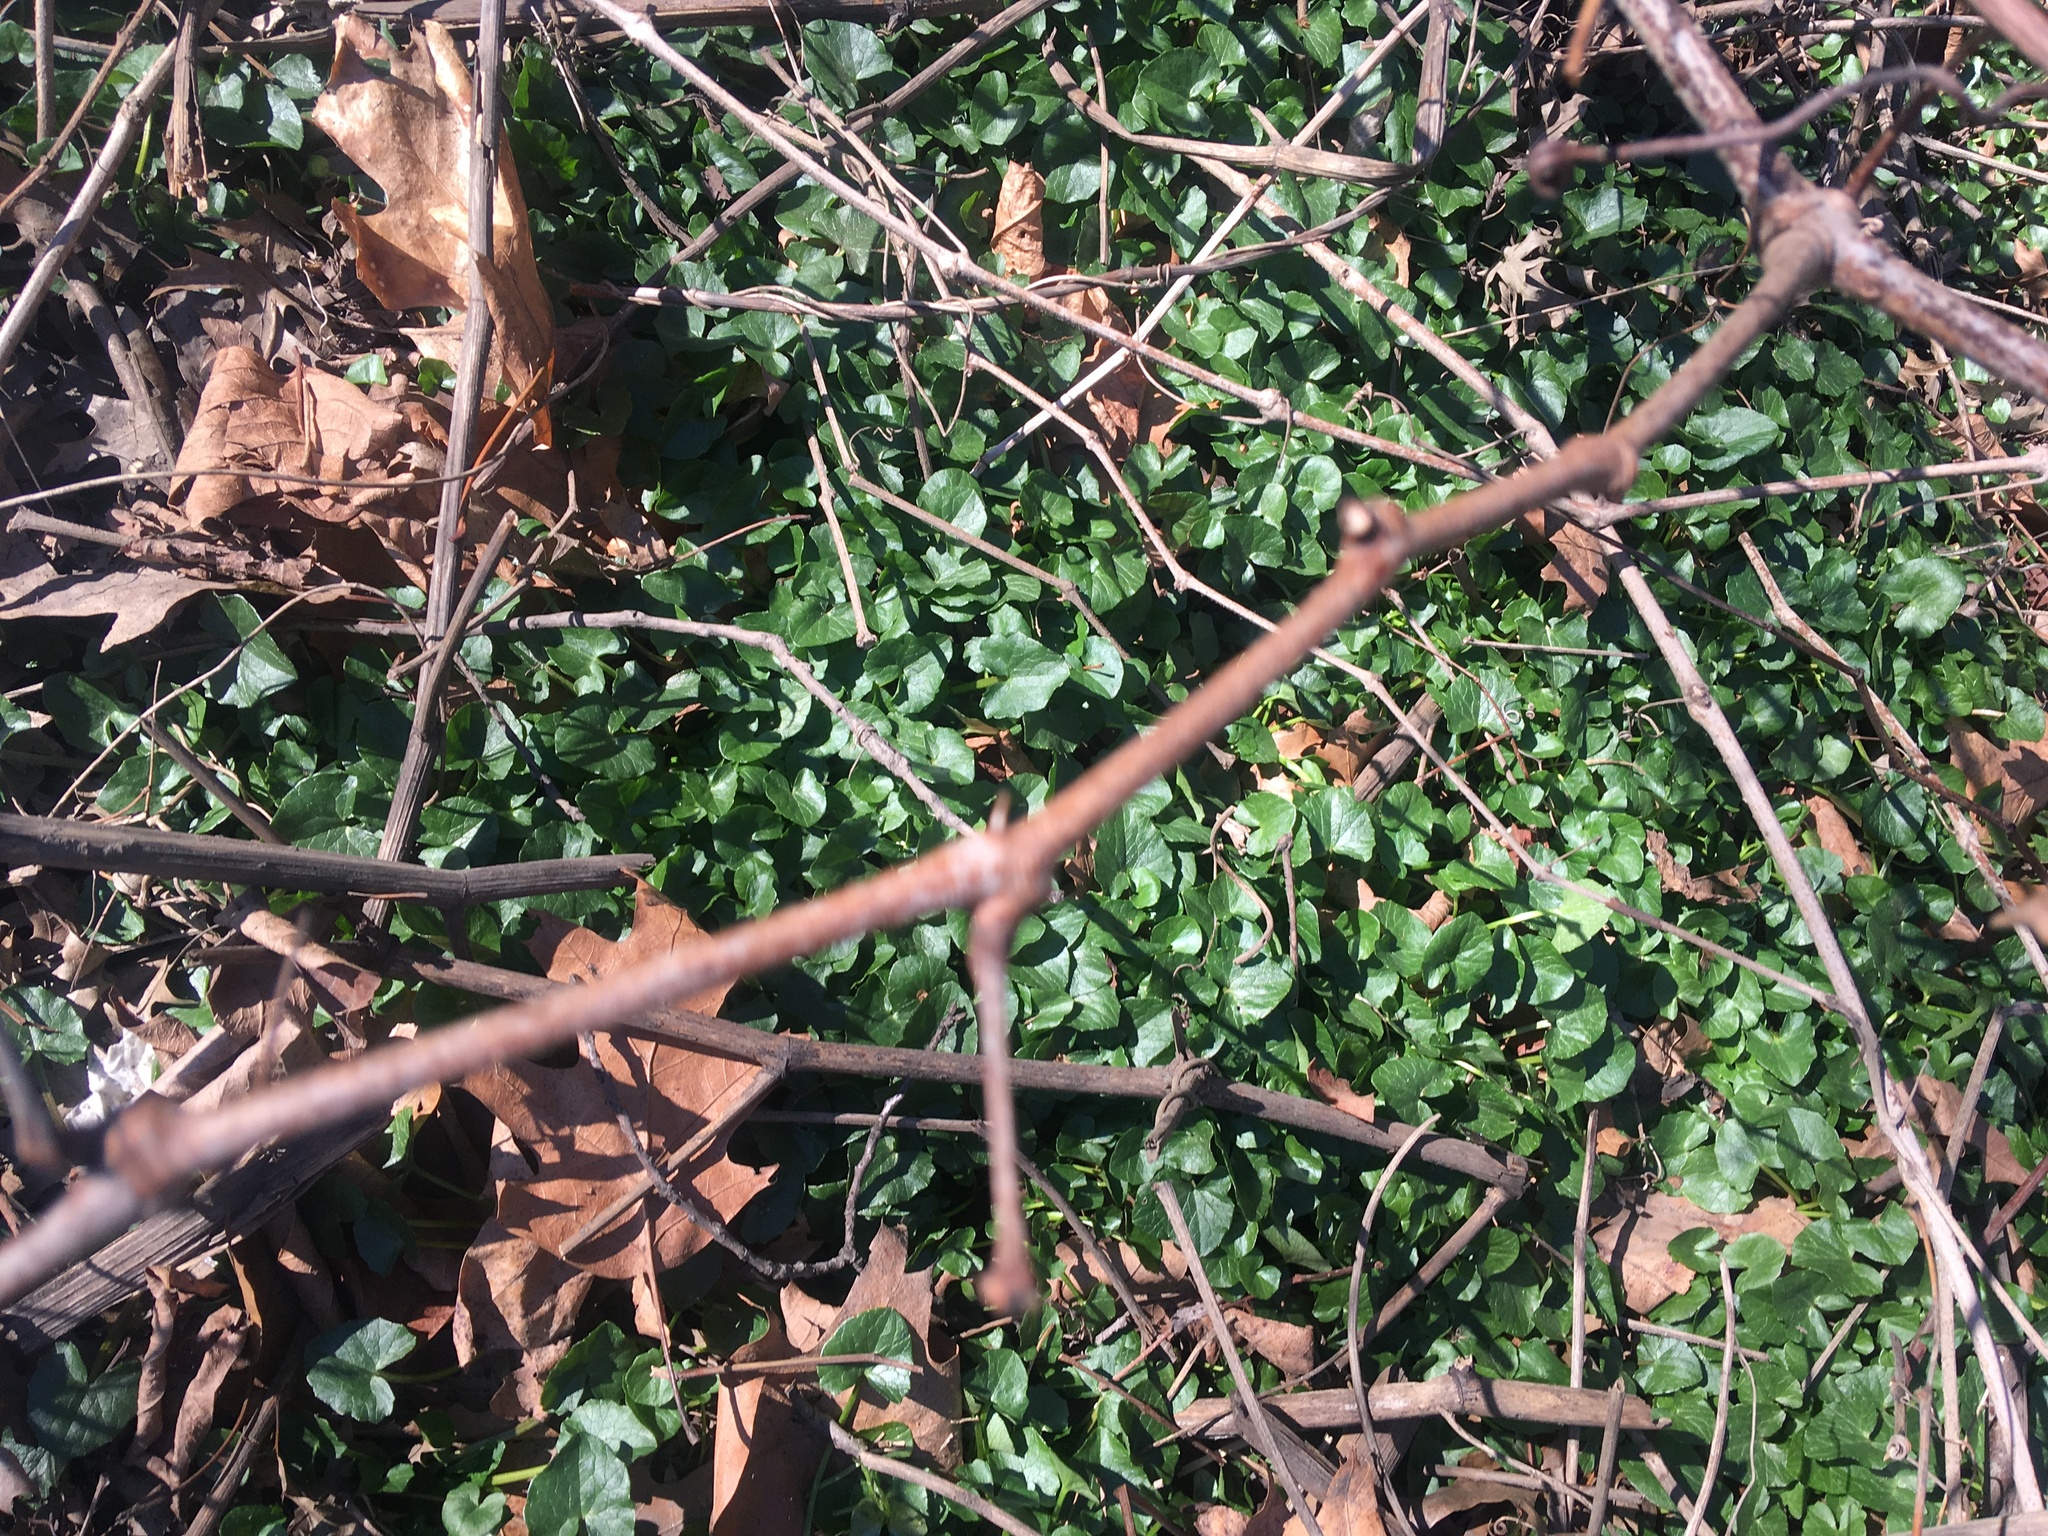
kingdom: Plantae
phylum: Tracheophyta
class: Magnoliopsida
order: Ranunculales
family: Ranunculaceae
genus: Ficaria
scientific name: Ficaria verna
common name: Lesser celandine
